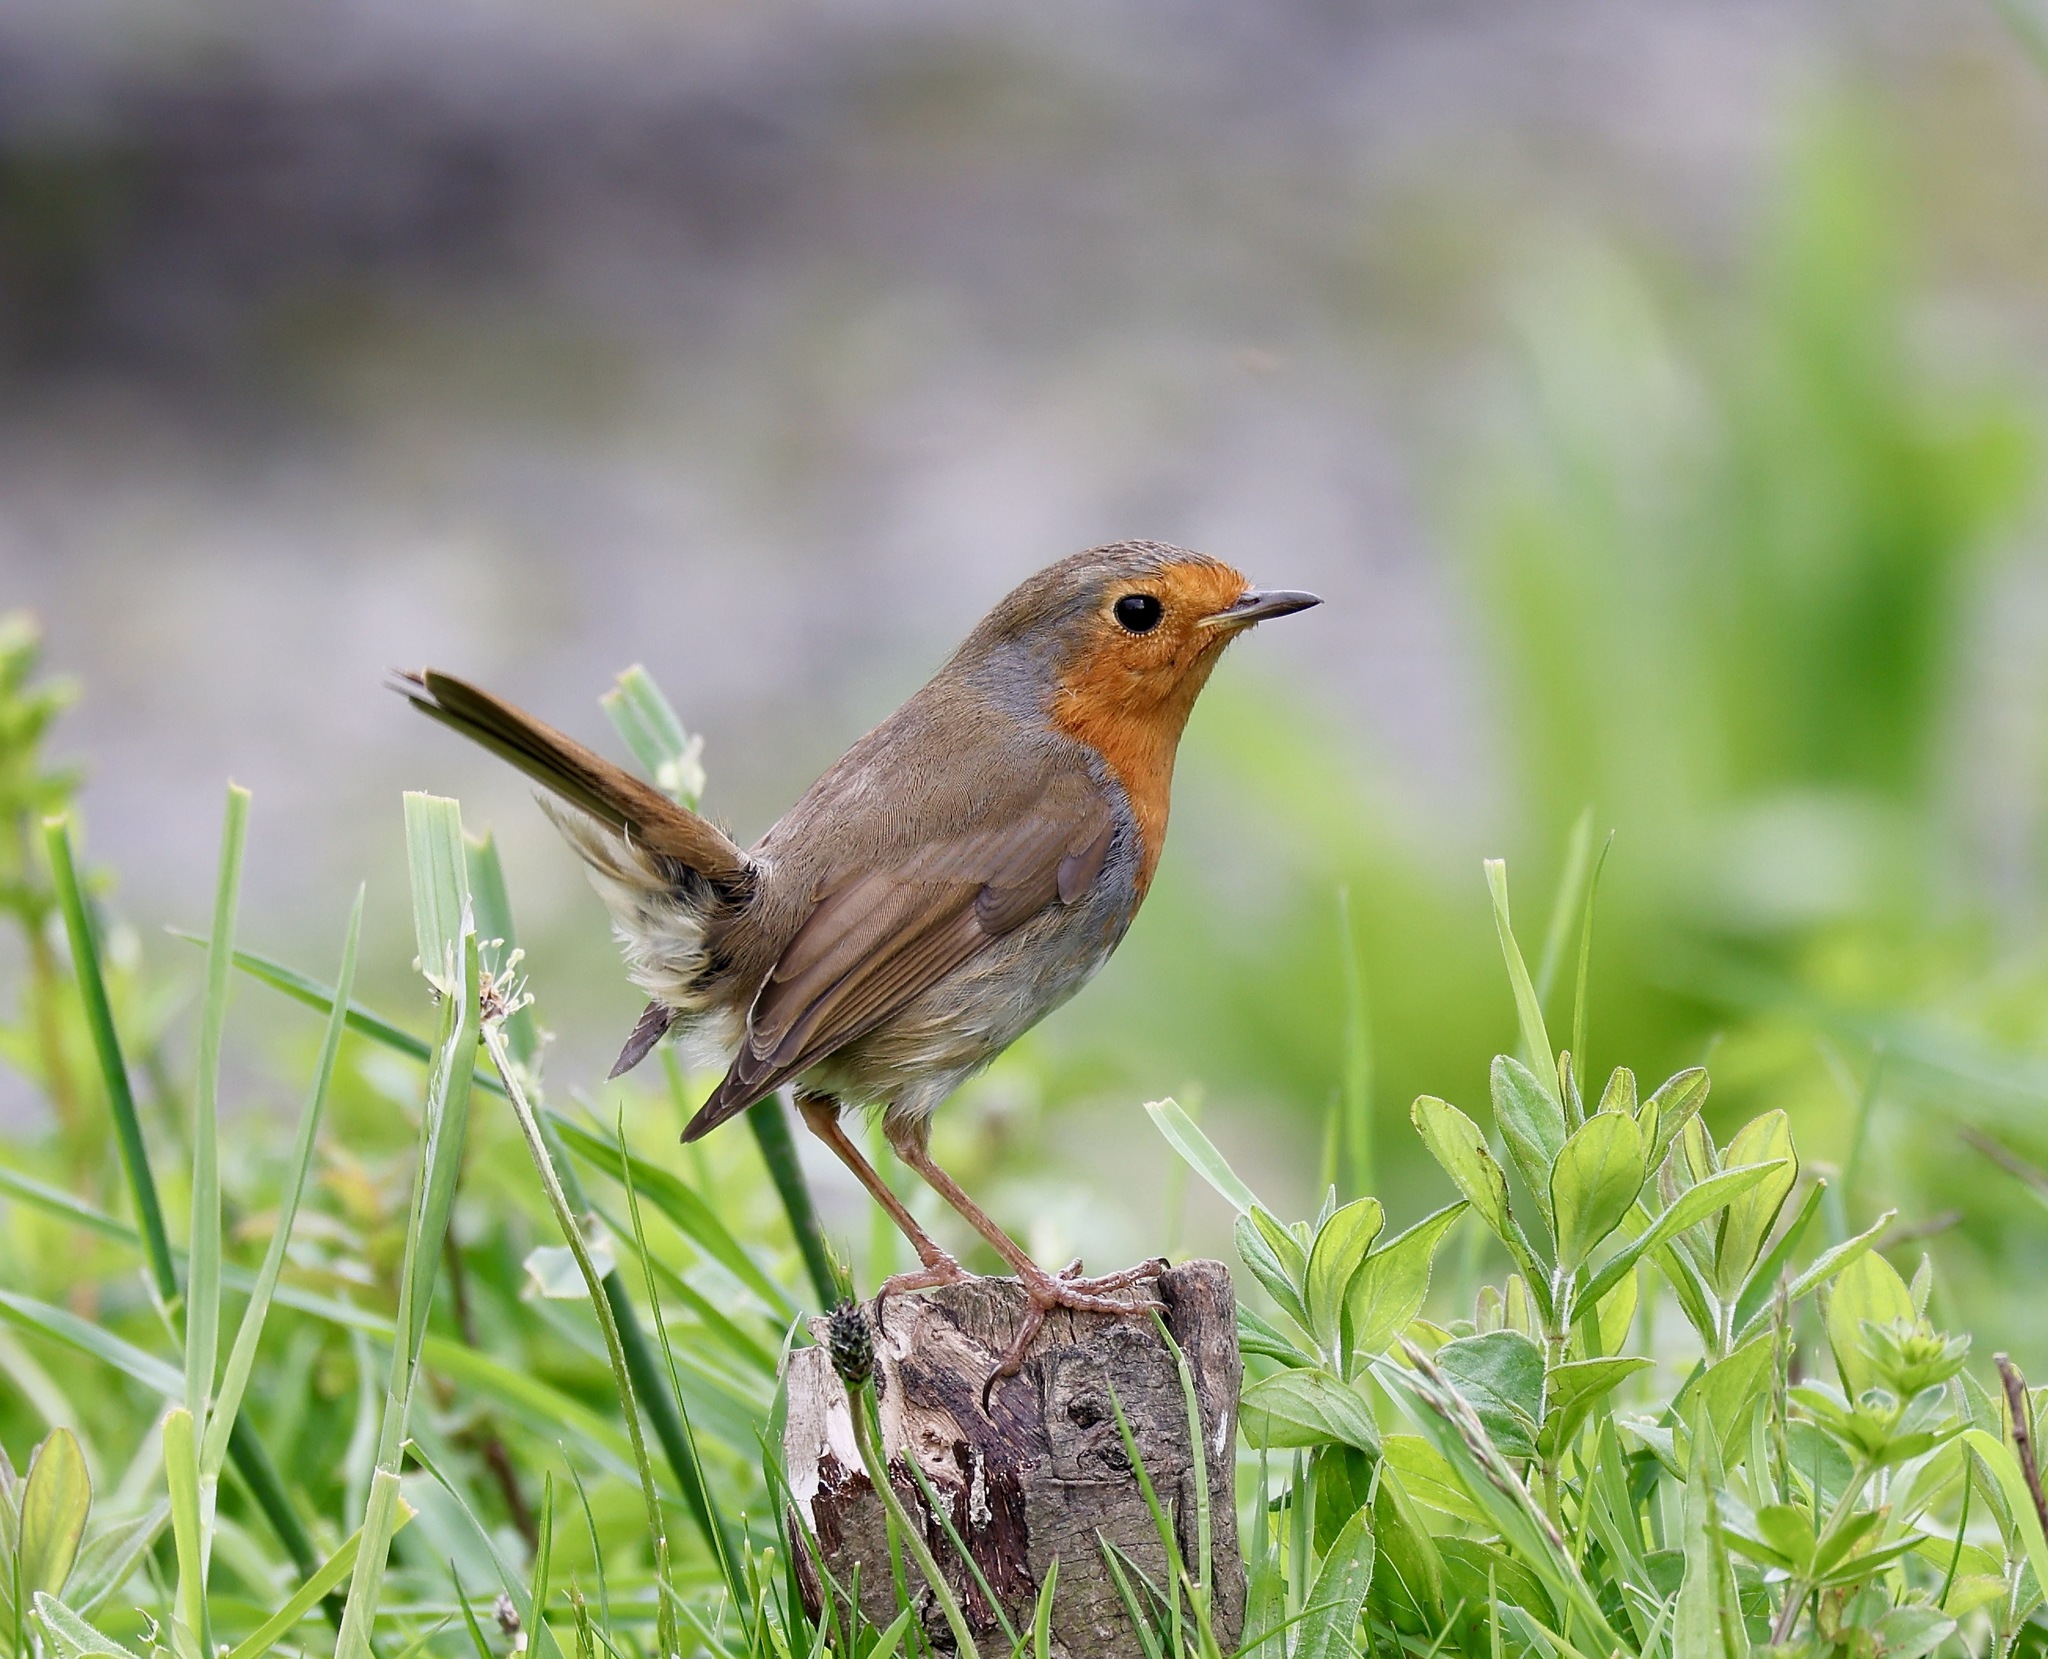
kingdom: Animalia
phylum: Chordata
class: Aves
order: Passeriformes
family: Muscicapidae
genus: Erithacus
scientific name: Erithacus rubecula
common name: European robin
